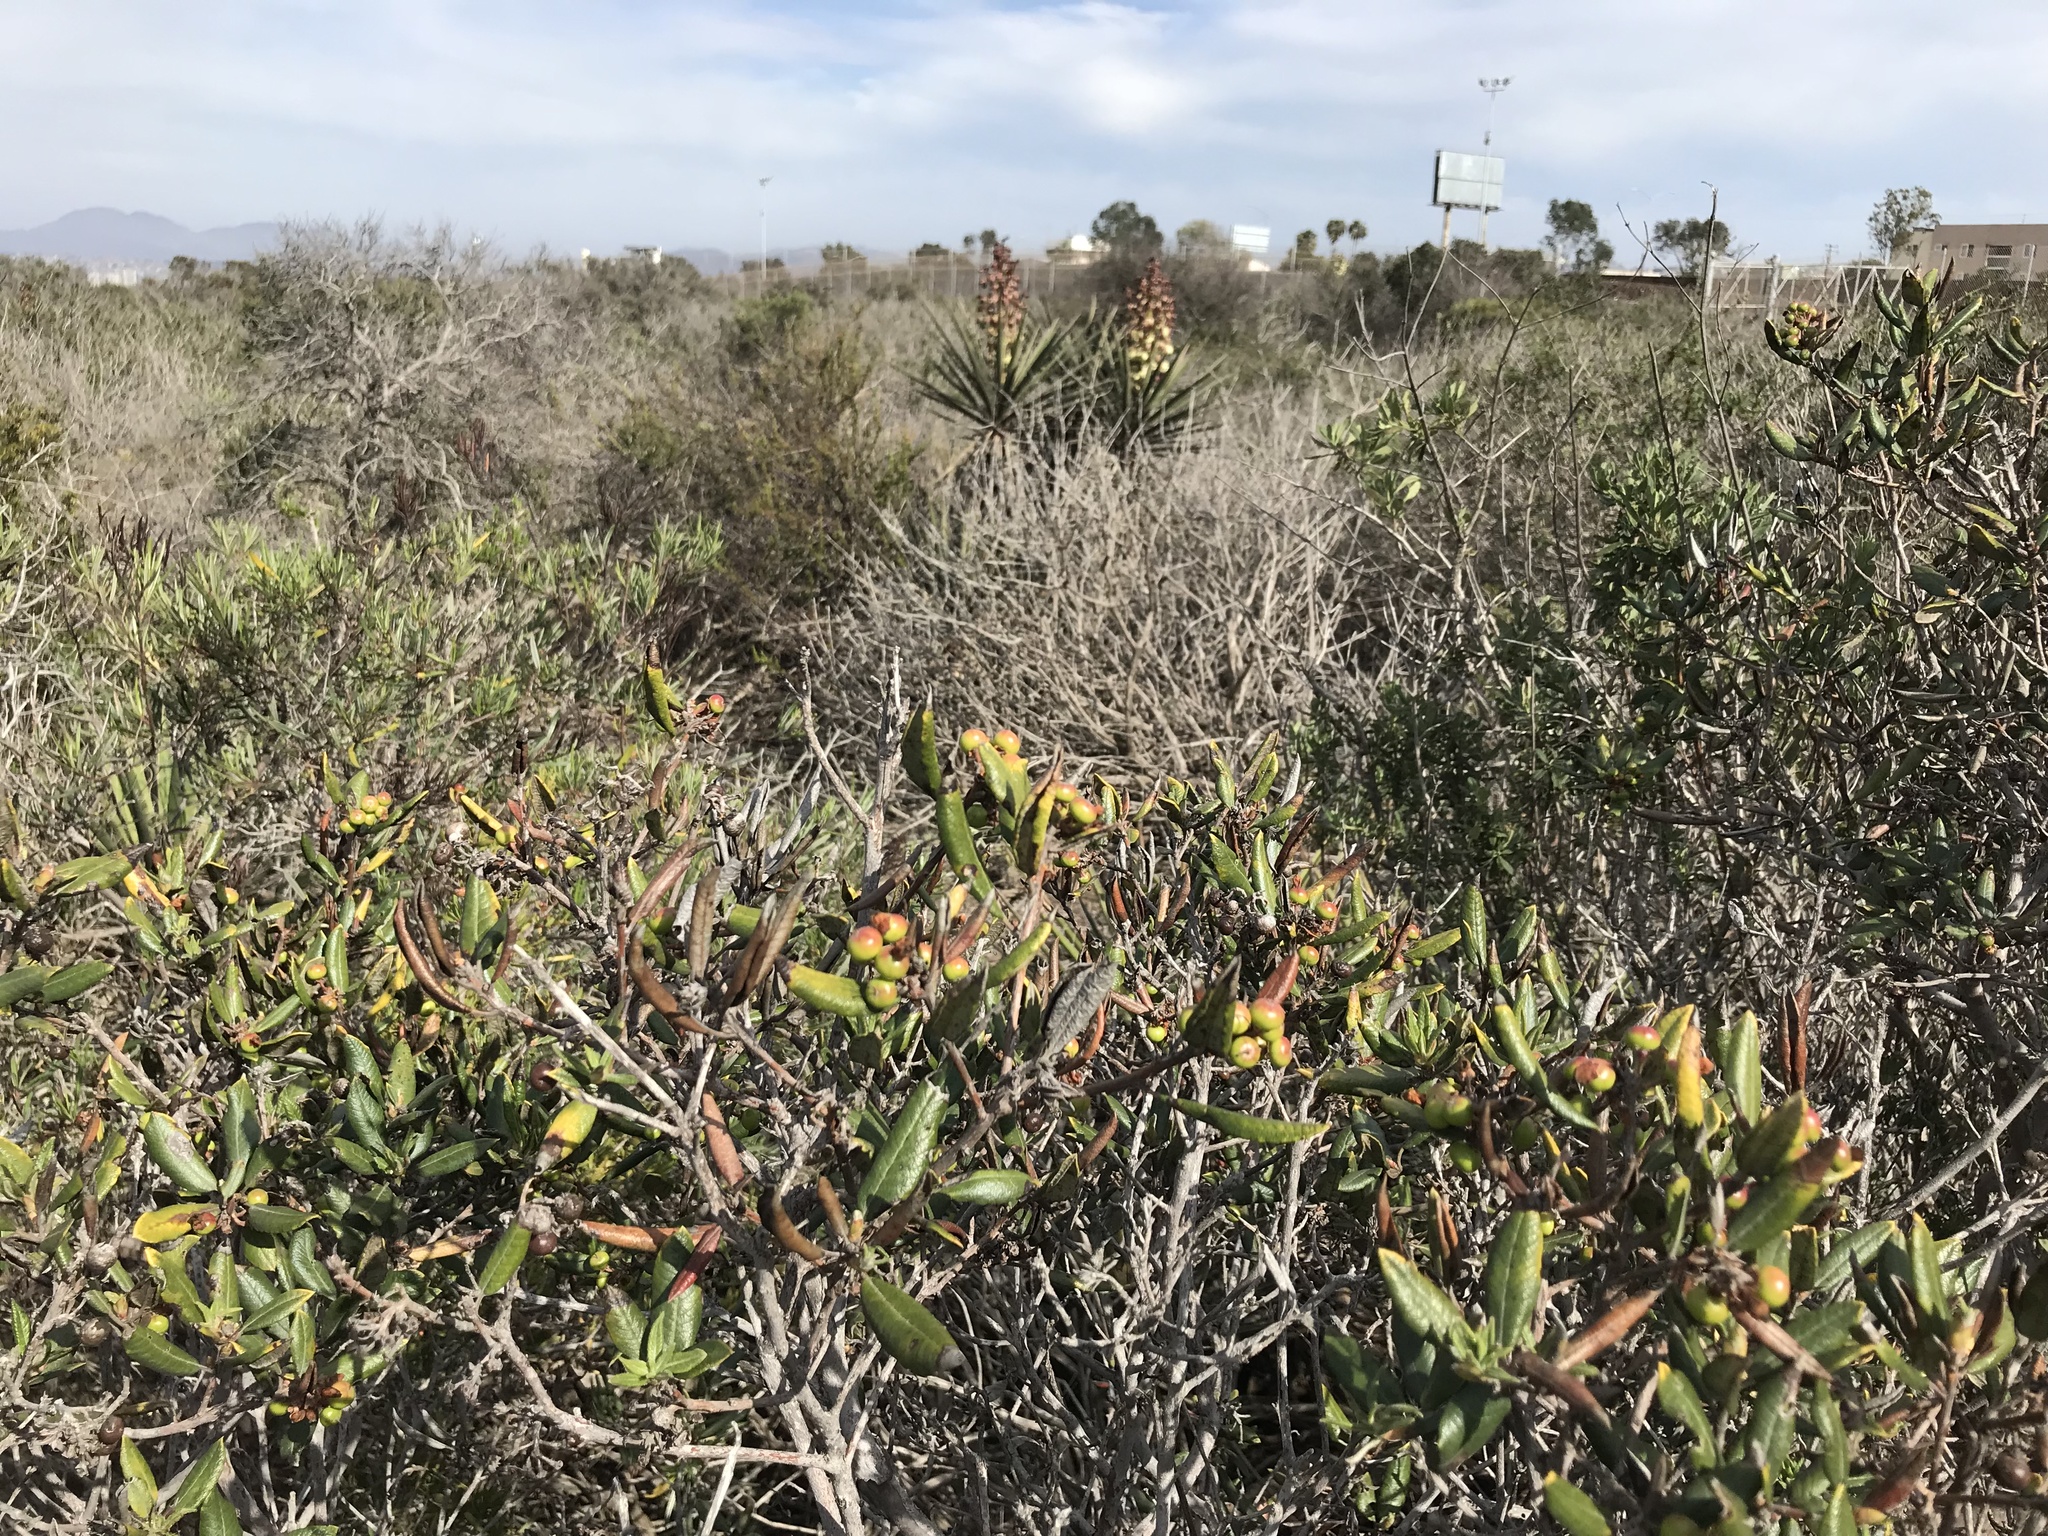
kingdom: Plantae
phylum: Tracheophyta
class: Magnoliopsida
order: Ericales
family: Ericaceae
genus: Arctostaphylos
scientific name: Arctostaphylos bicolor
